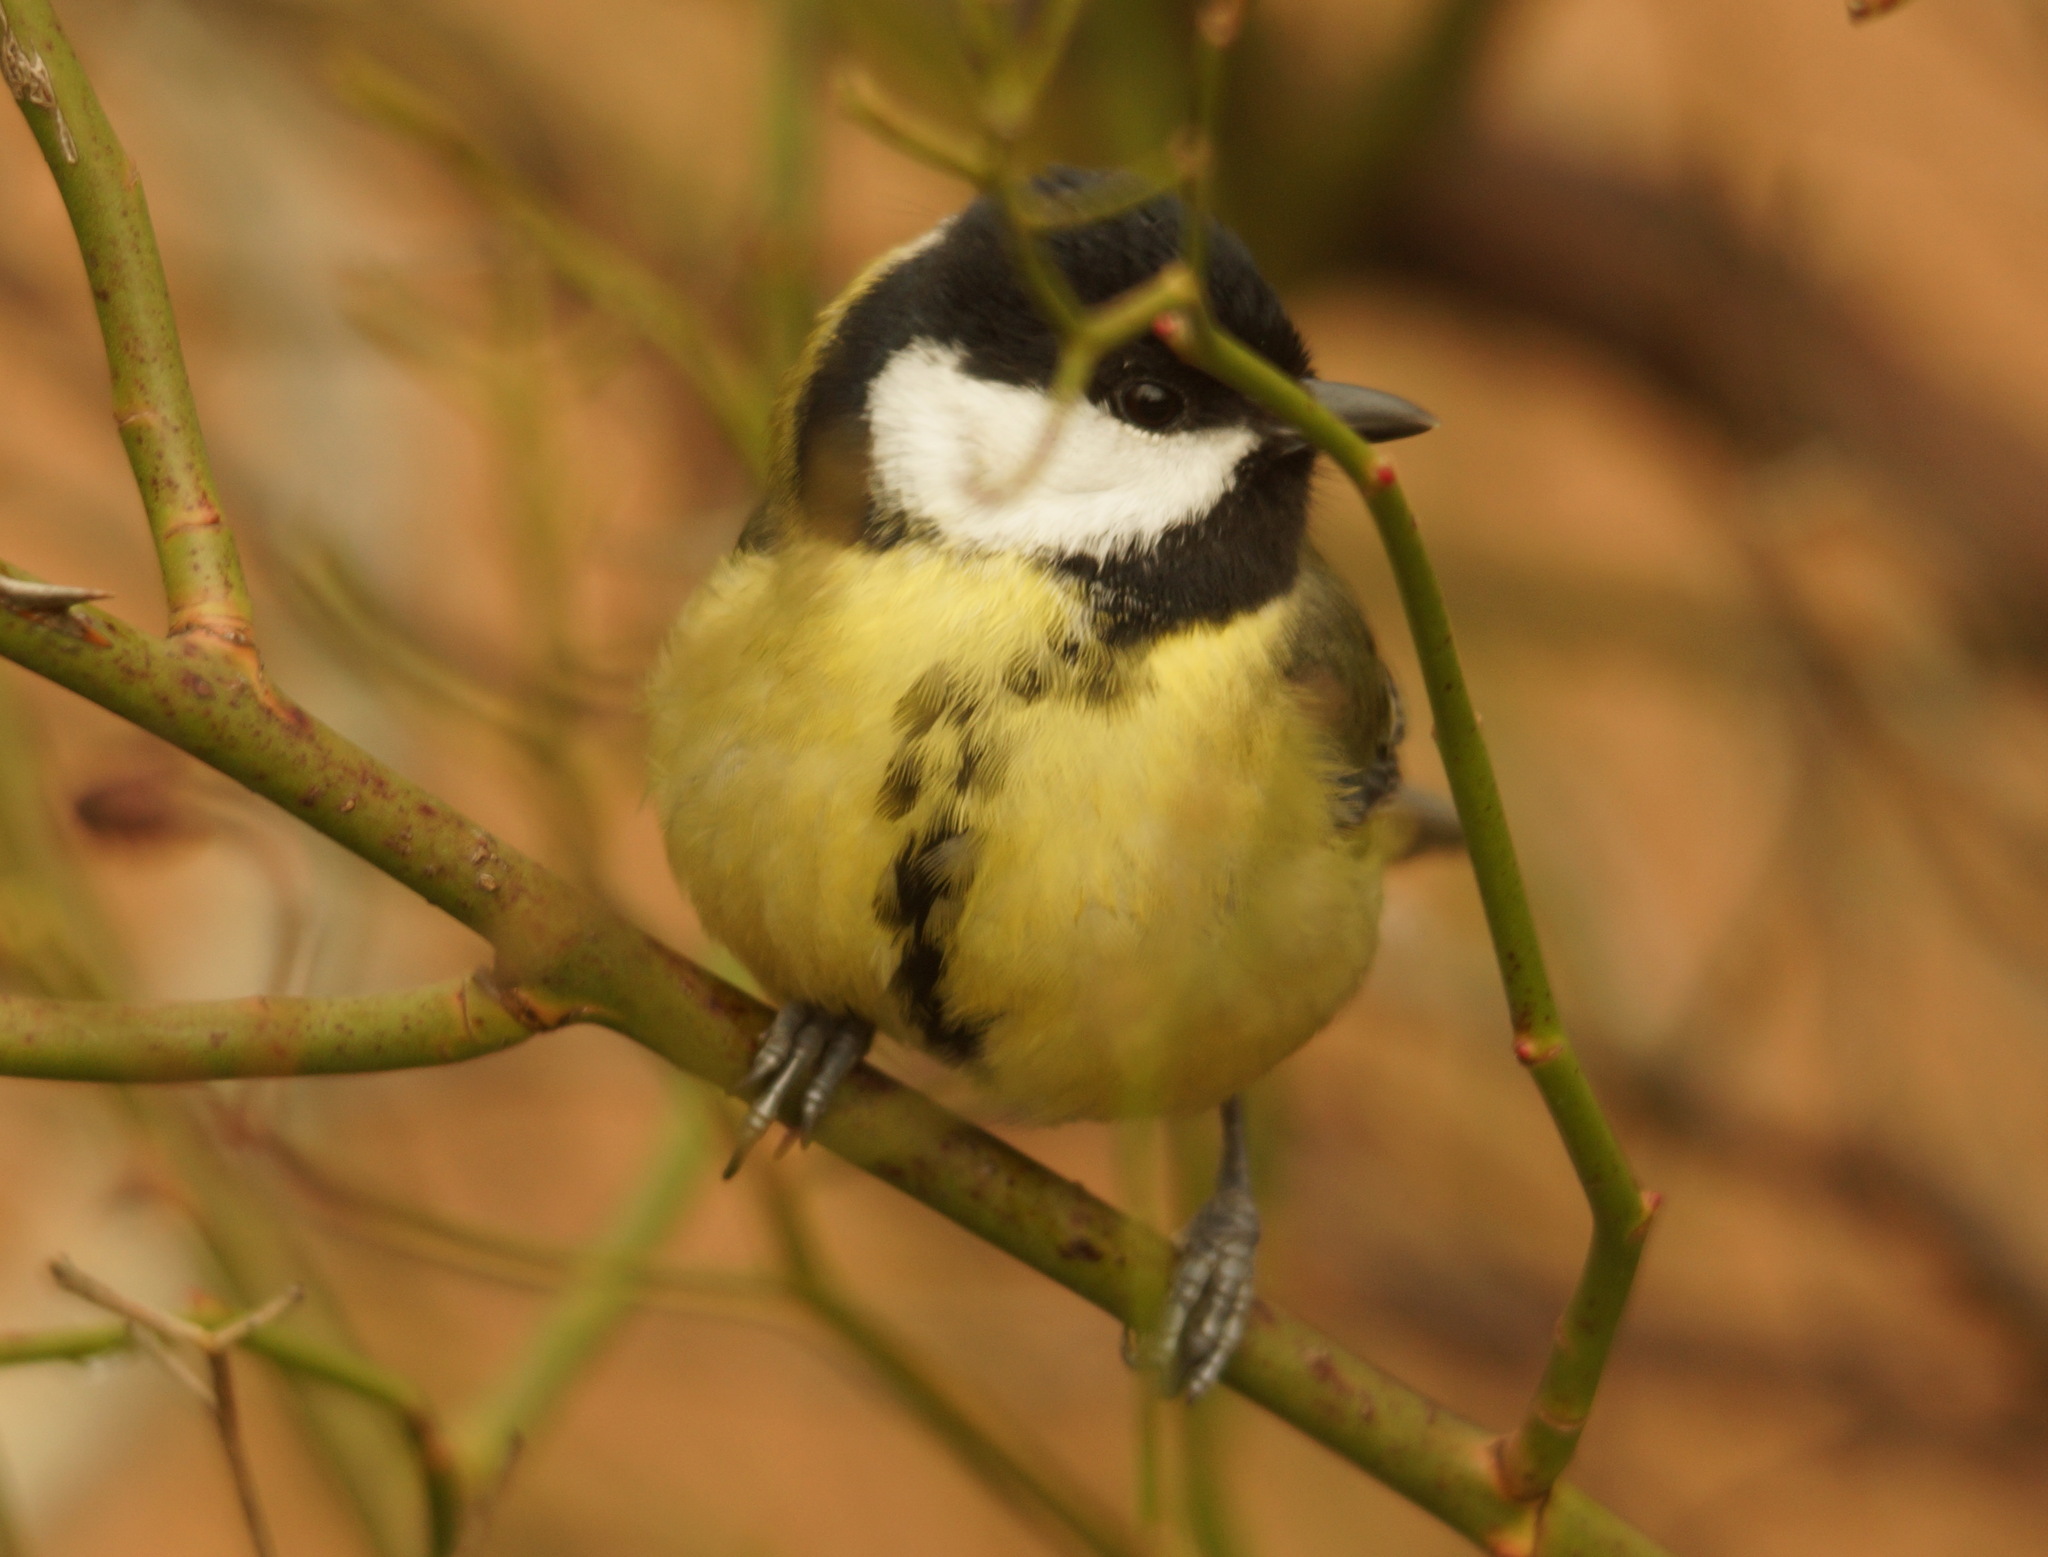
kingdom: Animalia
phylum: Chordata
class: Aves
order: Passeriformes
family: Paridae
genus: Parus
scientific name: Parus major
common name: Great tit
